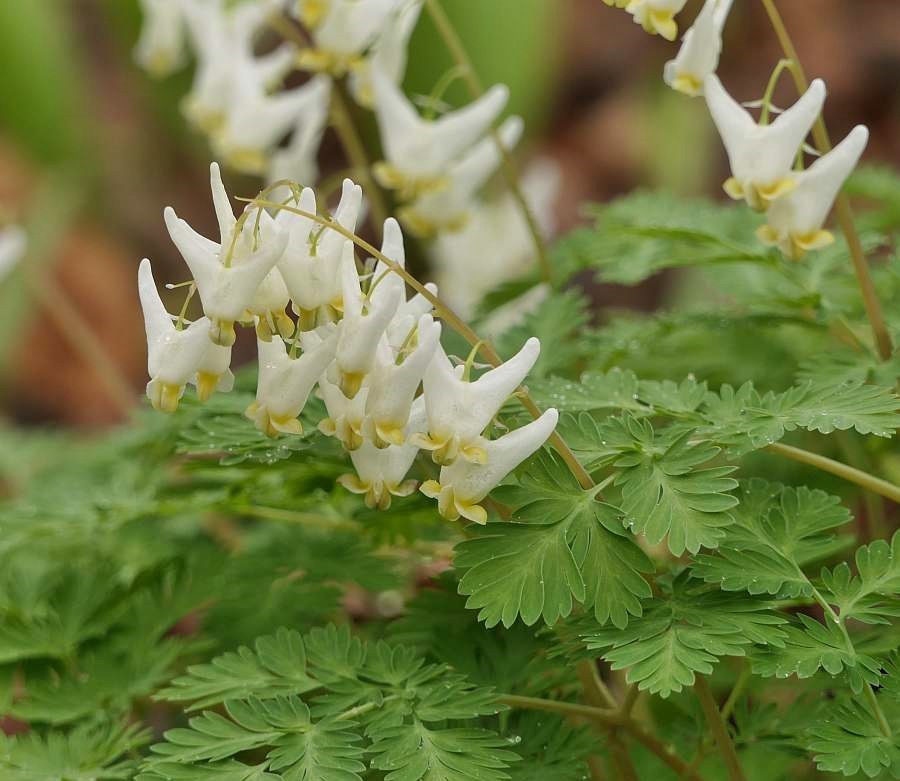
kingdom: Plantae
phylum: Tracheophyta
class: Magnoliopsida
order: Ranunculales
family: Papaveraceae
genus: Dicentra
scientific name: Dicentra cucullaria
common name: Dutchman's breeches
